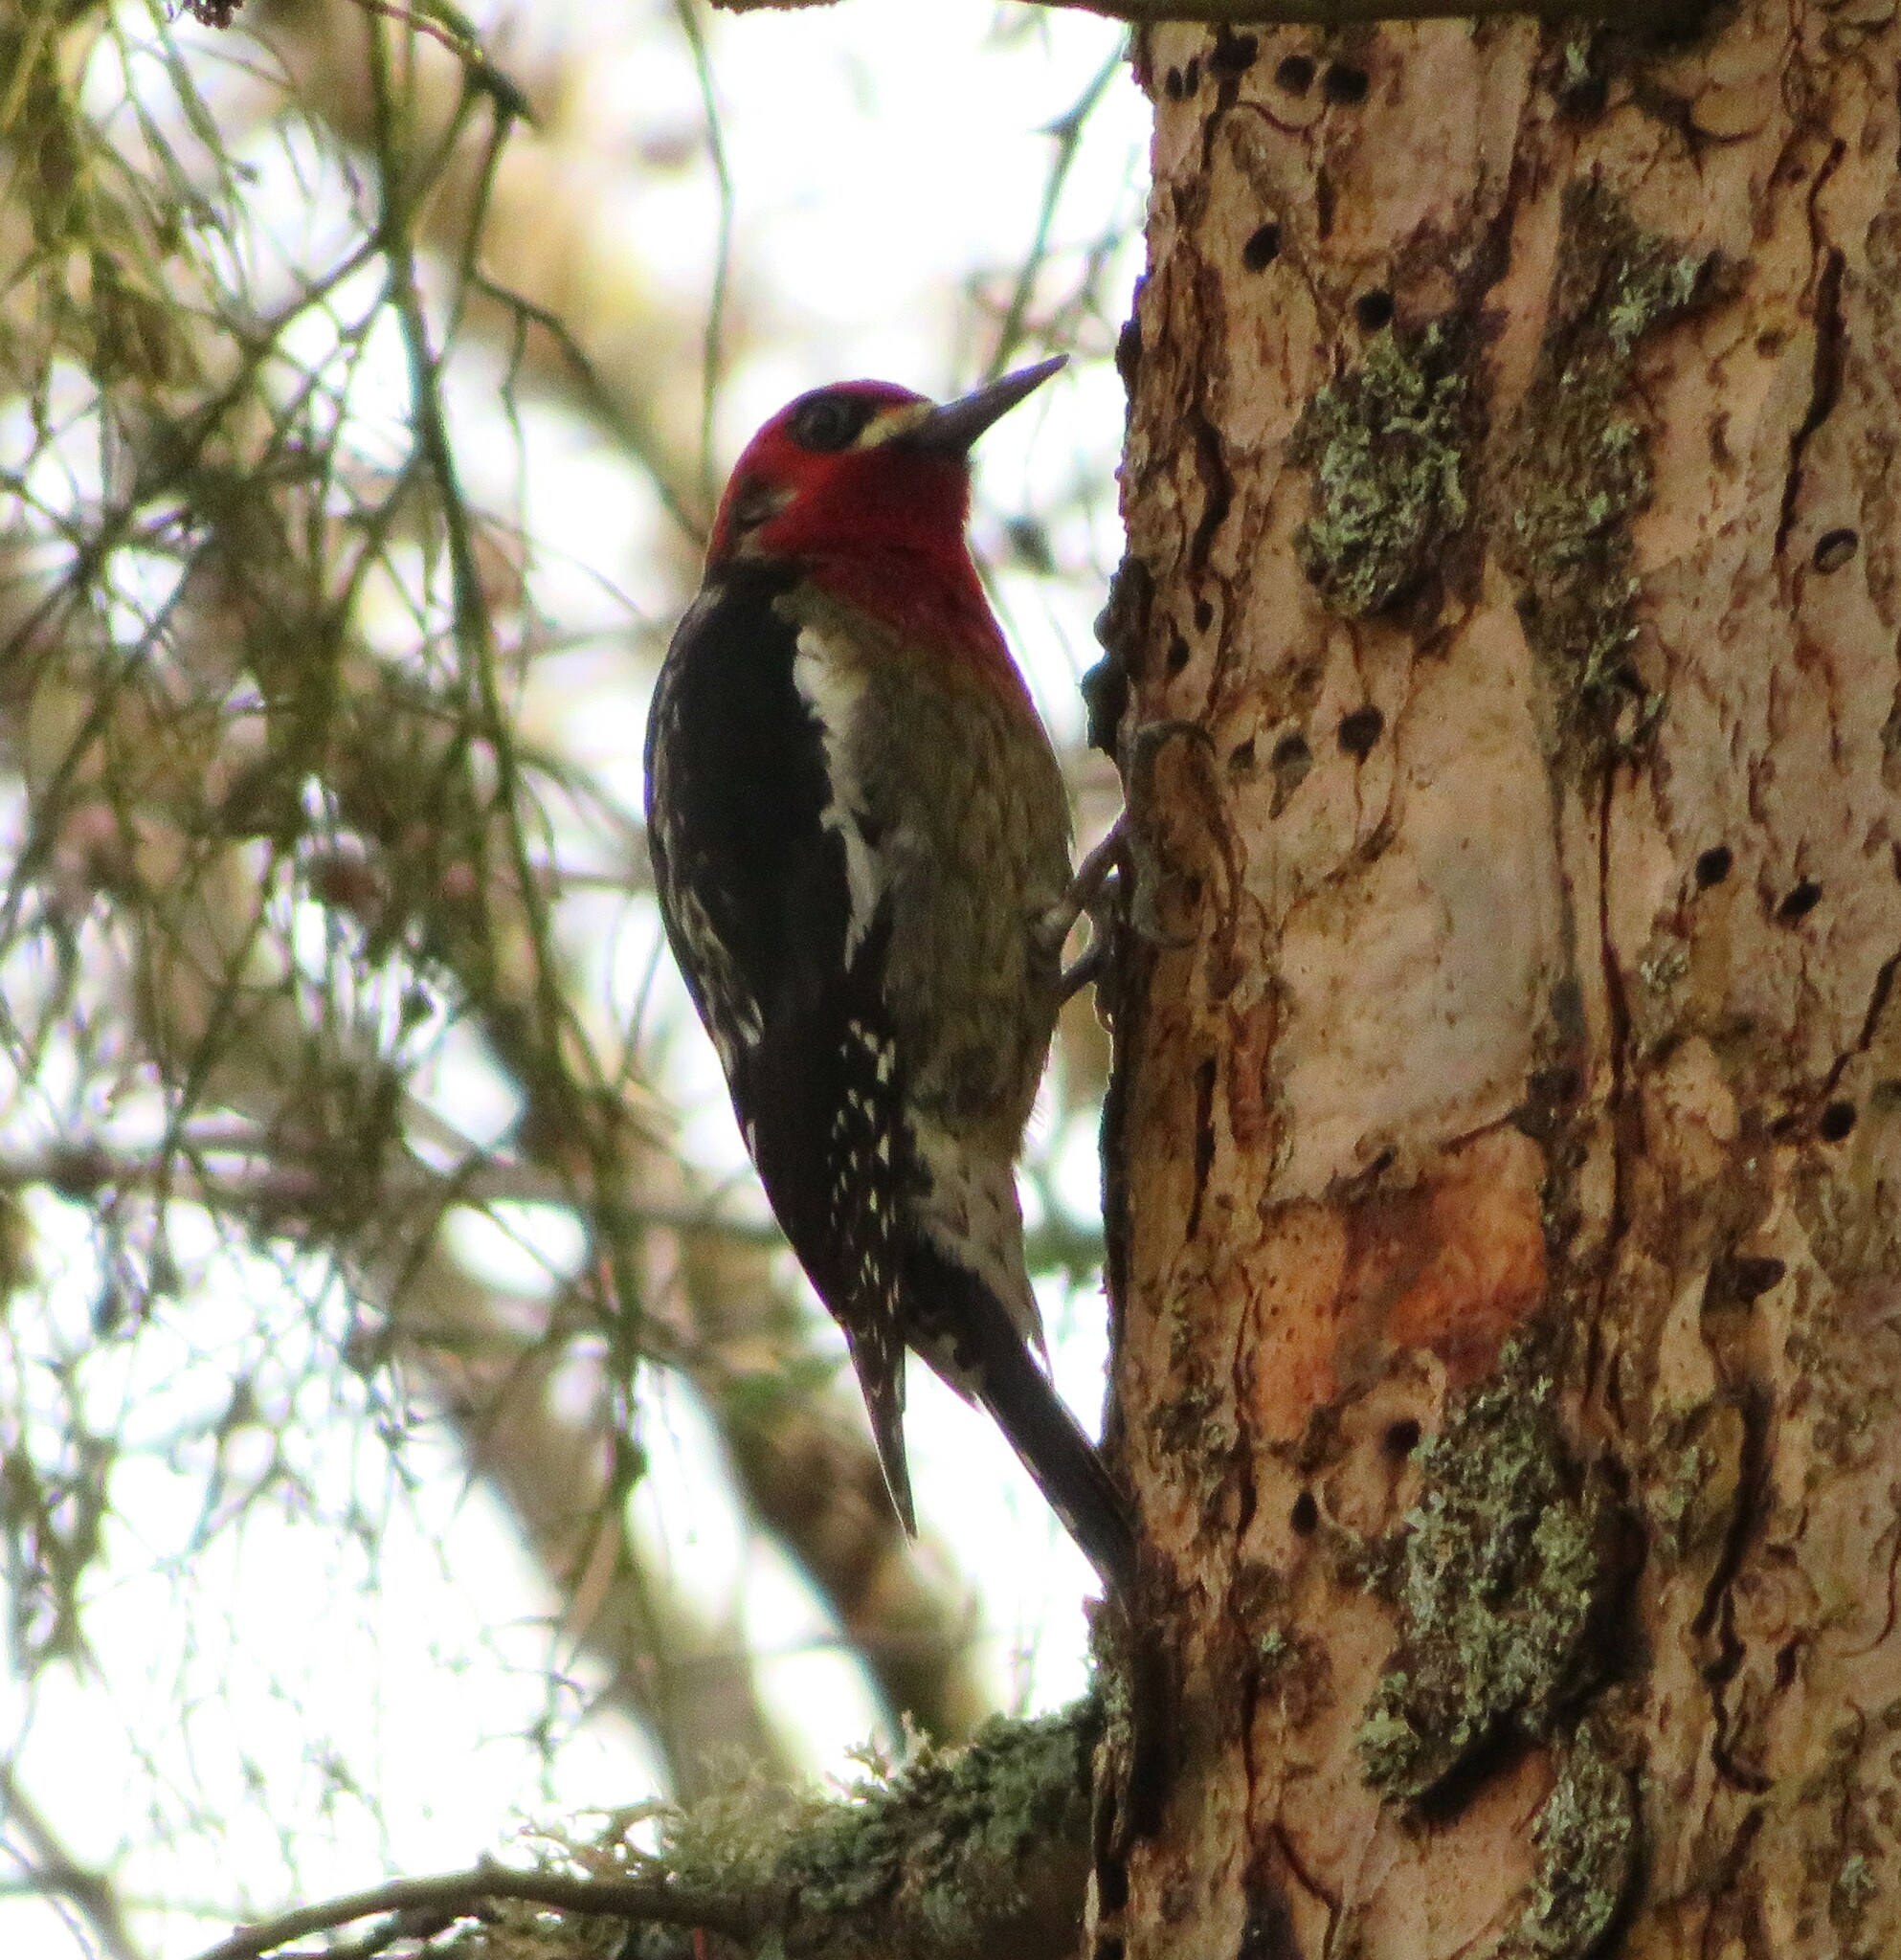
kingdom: Animalia
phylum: Chordata
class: Aves
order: Piciformes
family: Picidae
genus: Sphyrapicus
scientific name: Sphyrapicus ruber
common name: Red-breasted sapsucker
